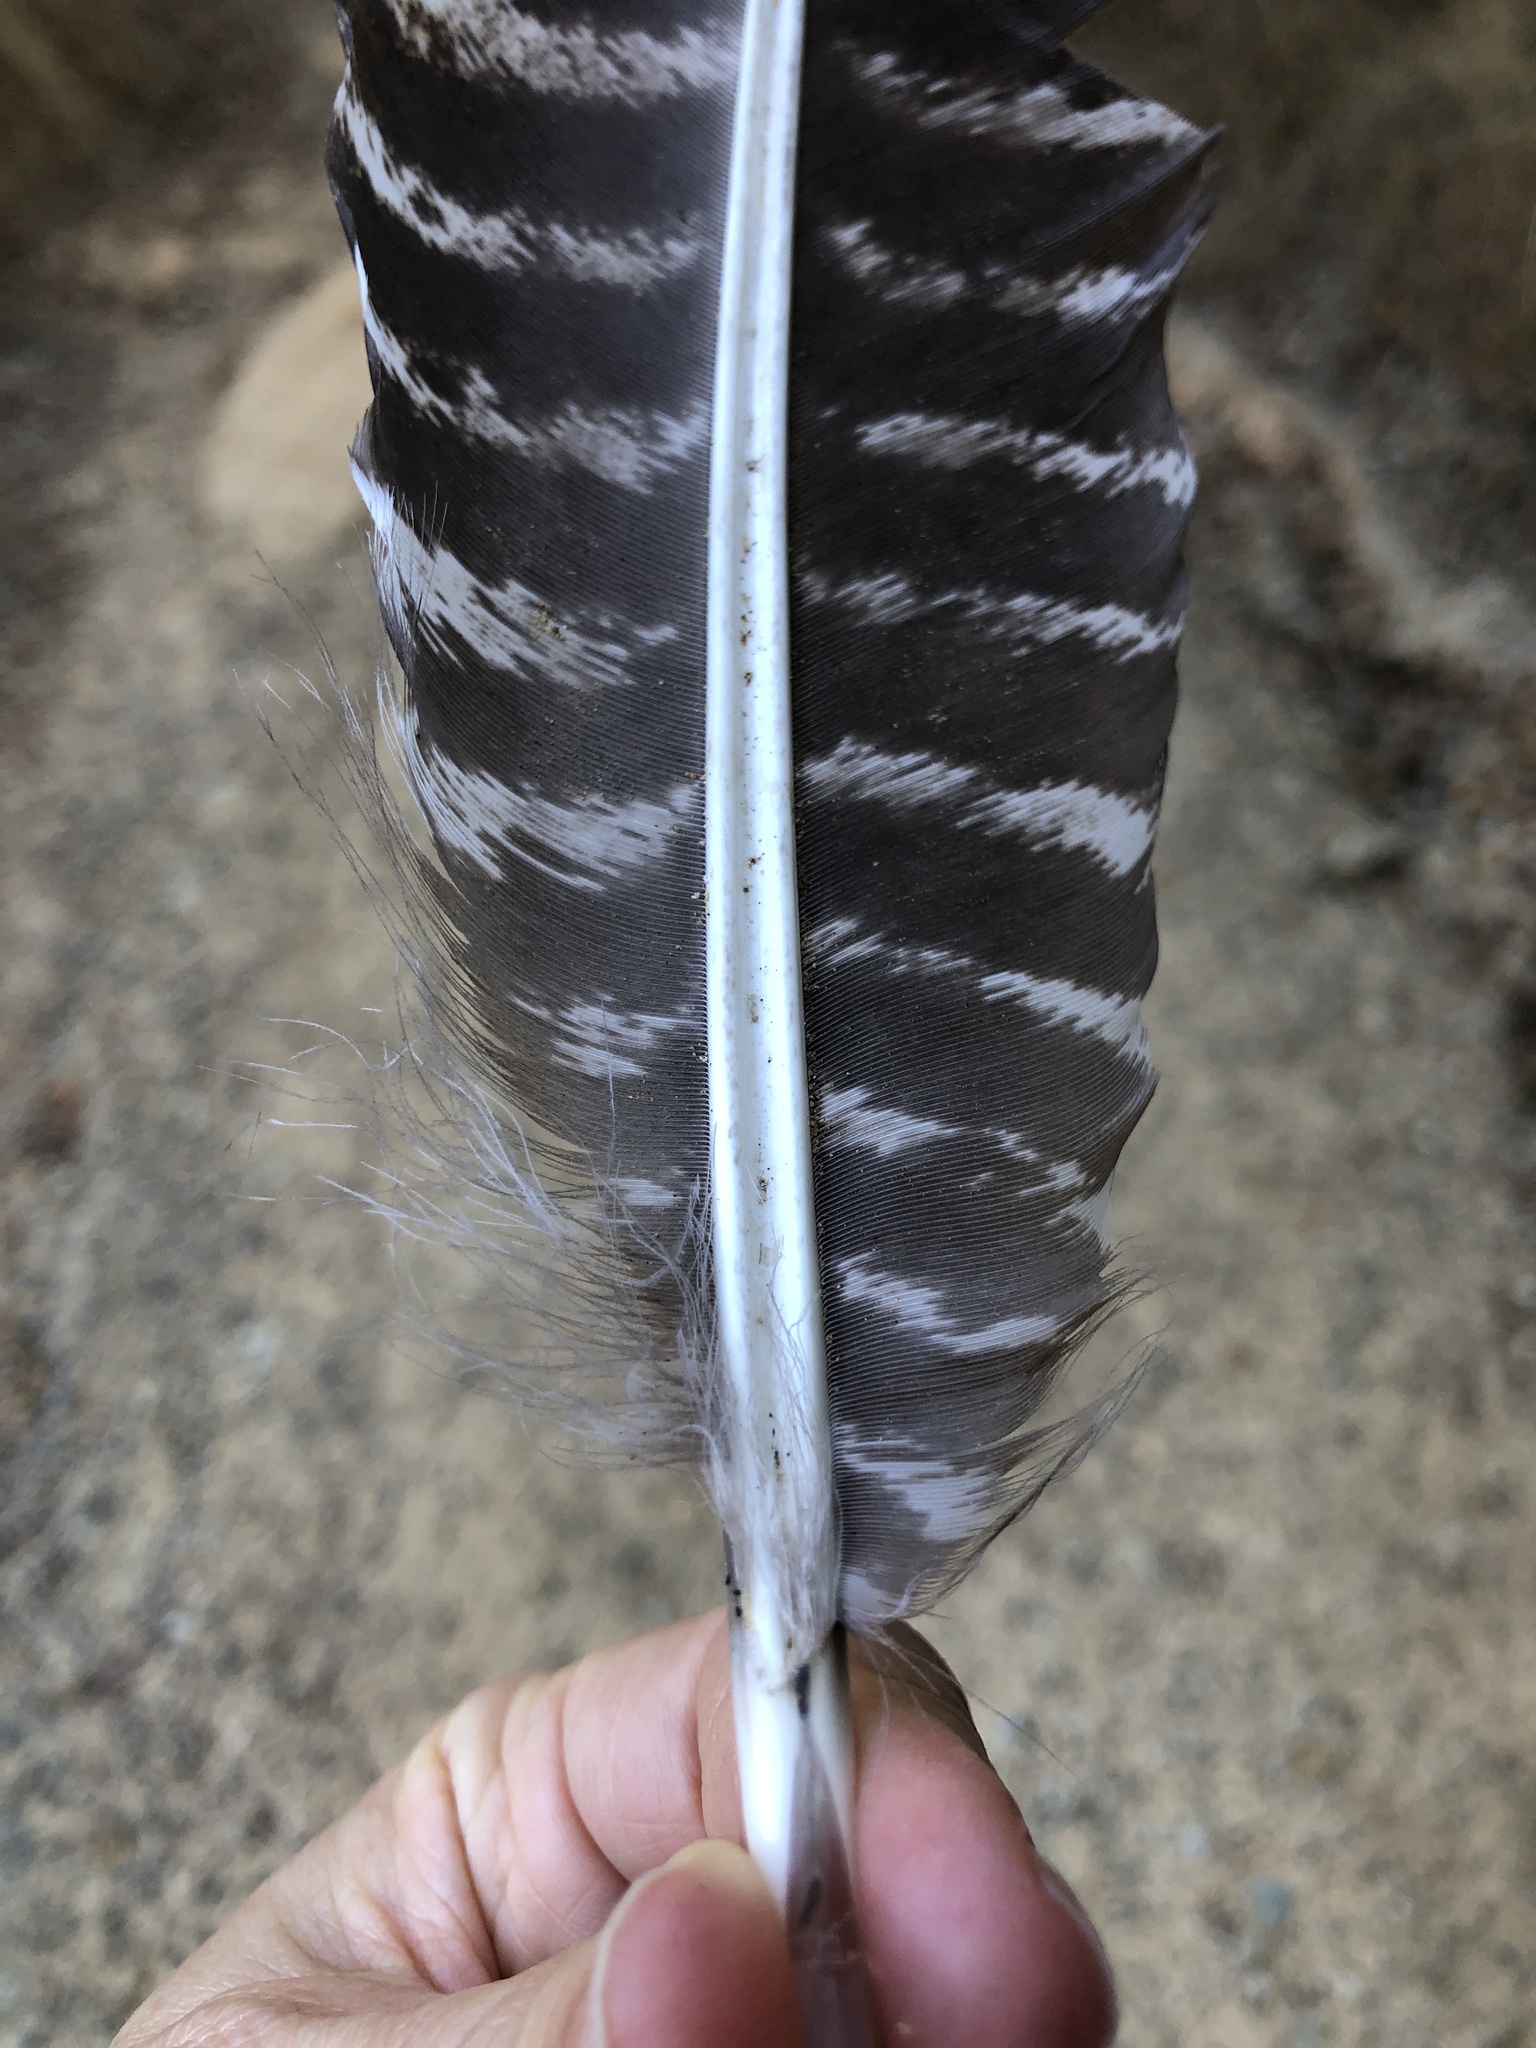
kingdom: Animalia
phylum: Chordata
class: Aves
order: Galliformes
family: Phasianidae
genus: Meleagris
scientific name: Meleagris gallopavo
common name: Wild turkey
